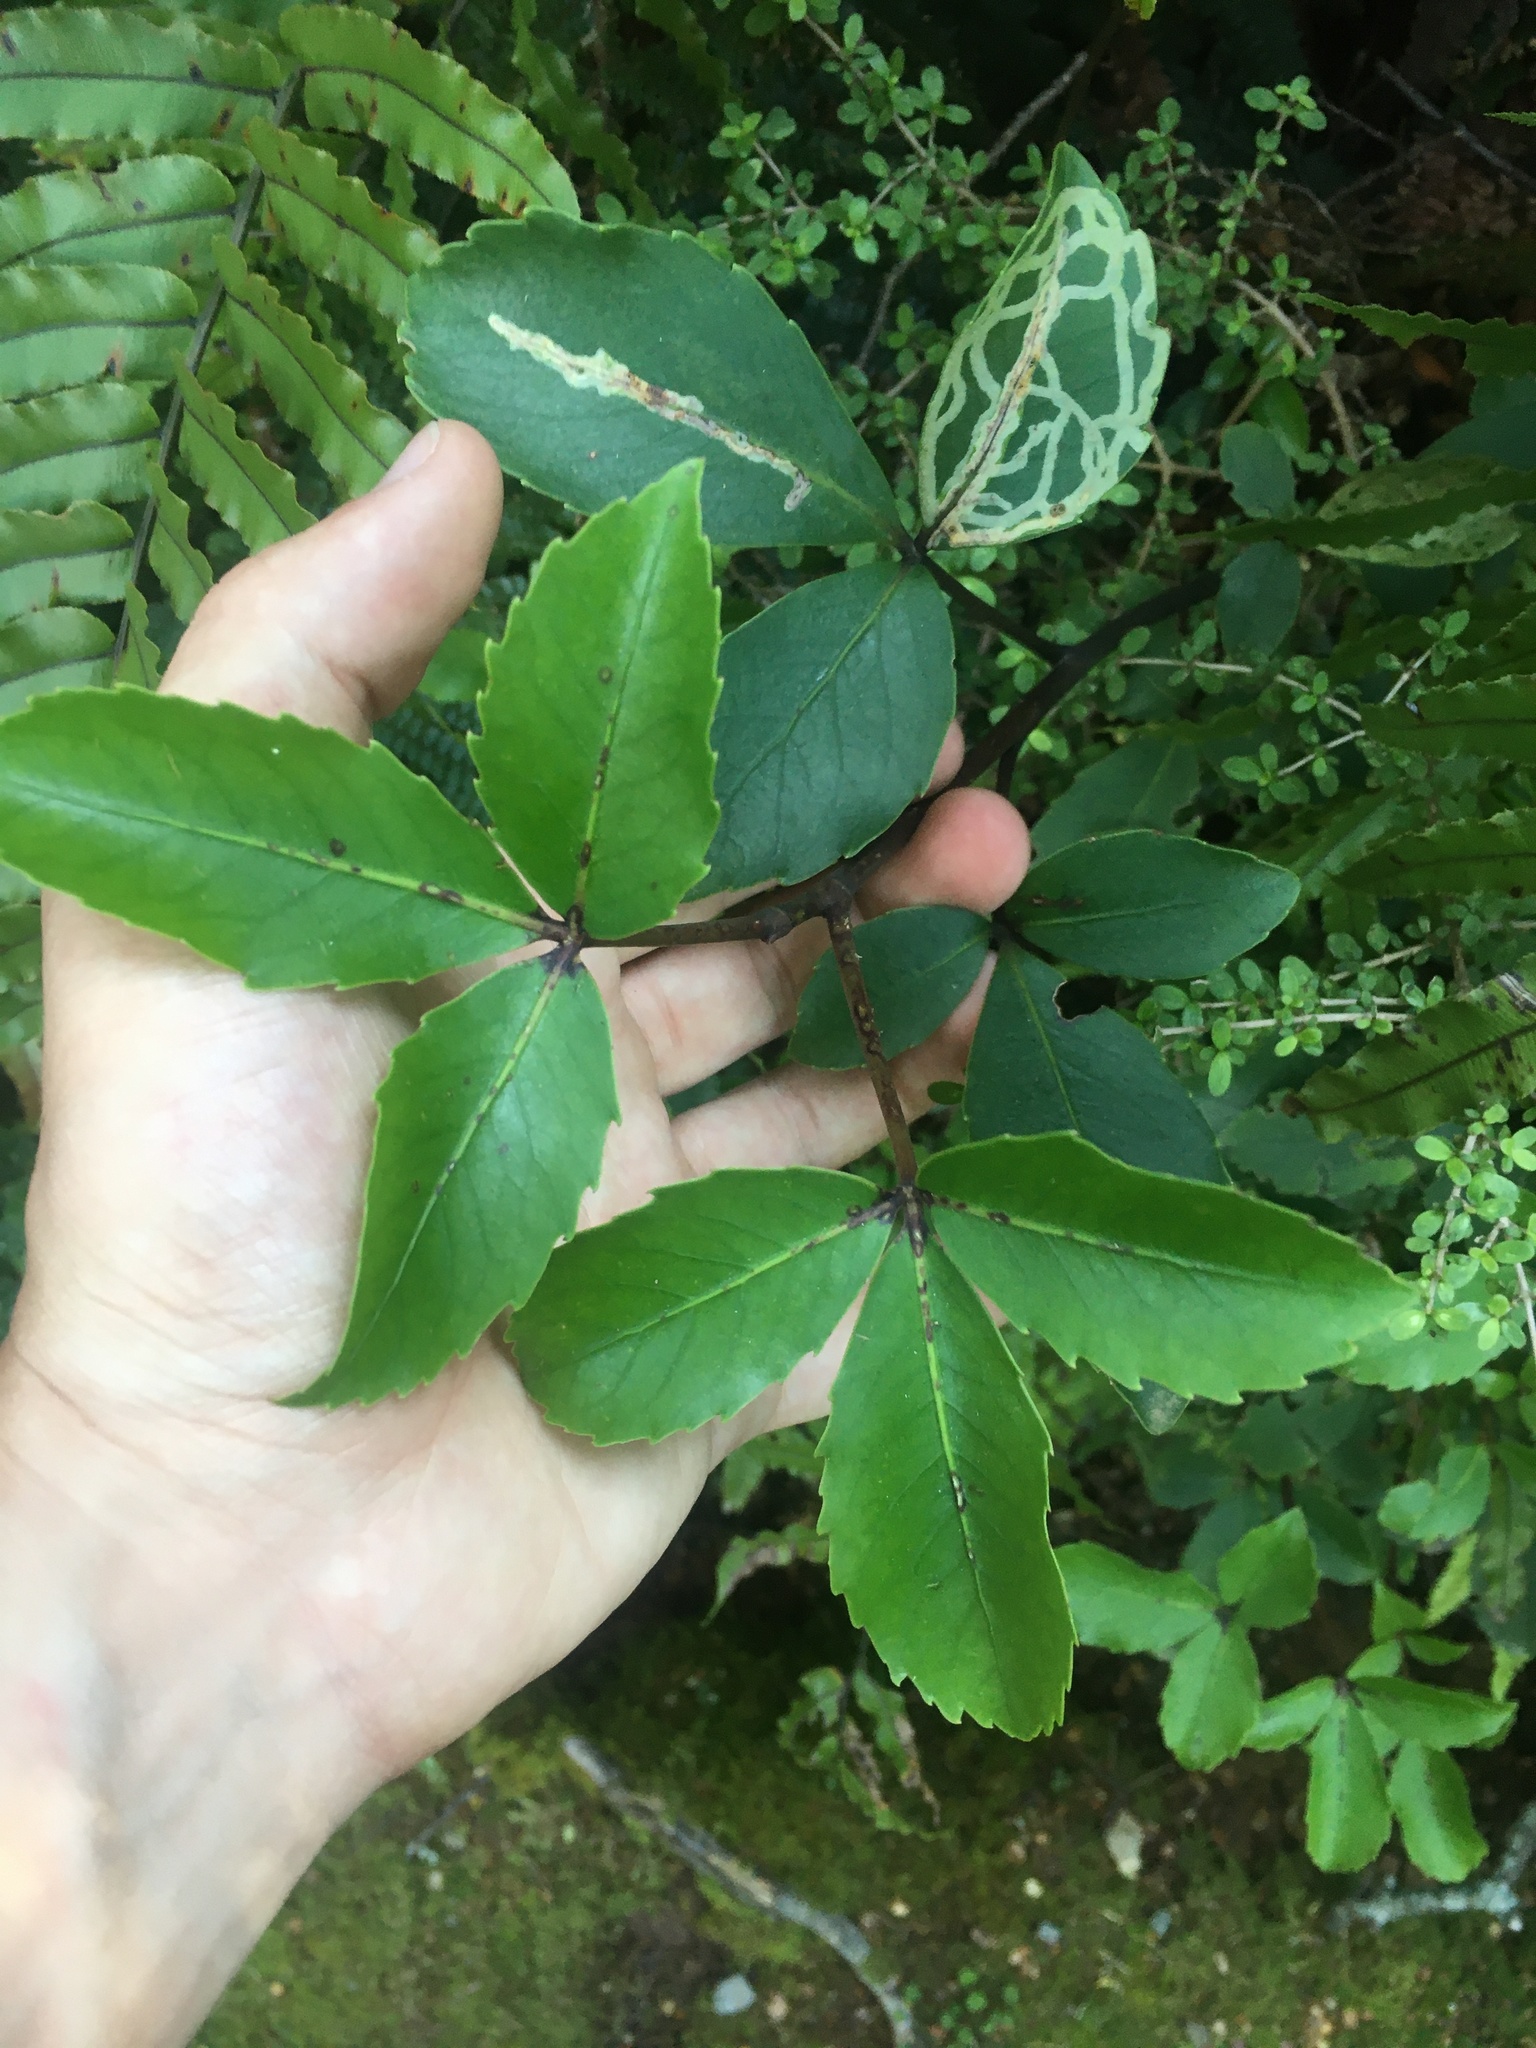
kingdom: Plantae
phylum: Tracheophyta
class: Magnoliopsida
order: Apiales
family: Araliaceae
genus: Neopanax
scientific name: Neopanax colensoi
